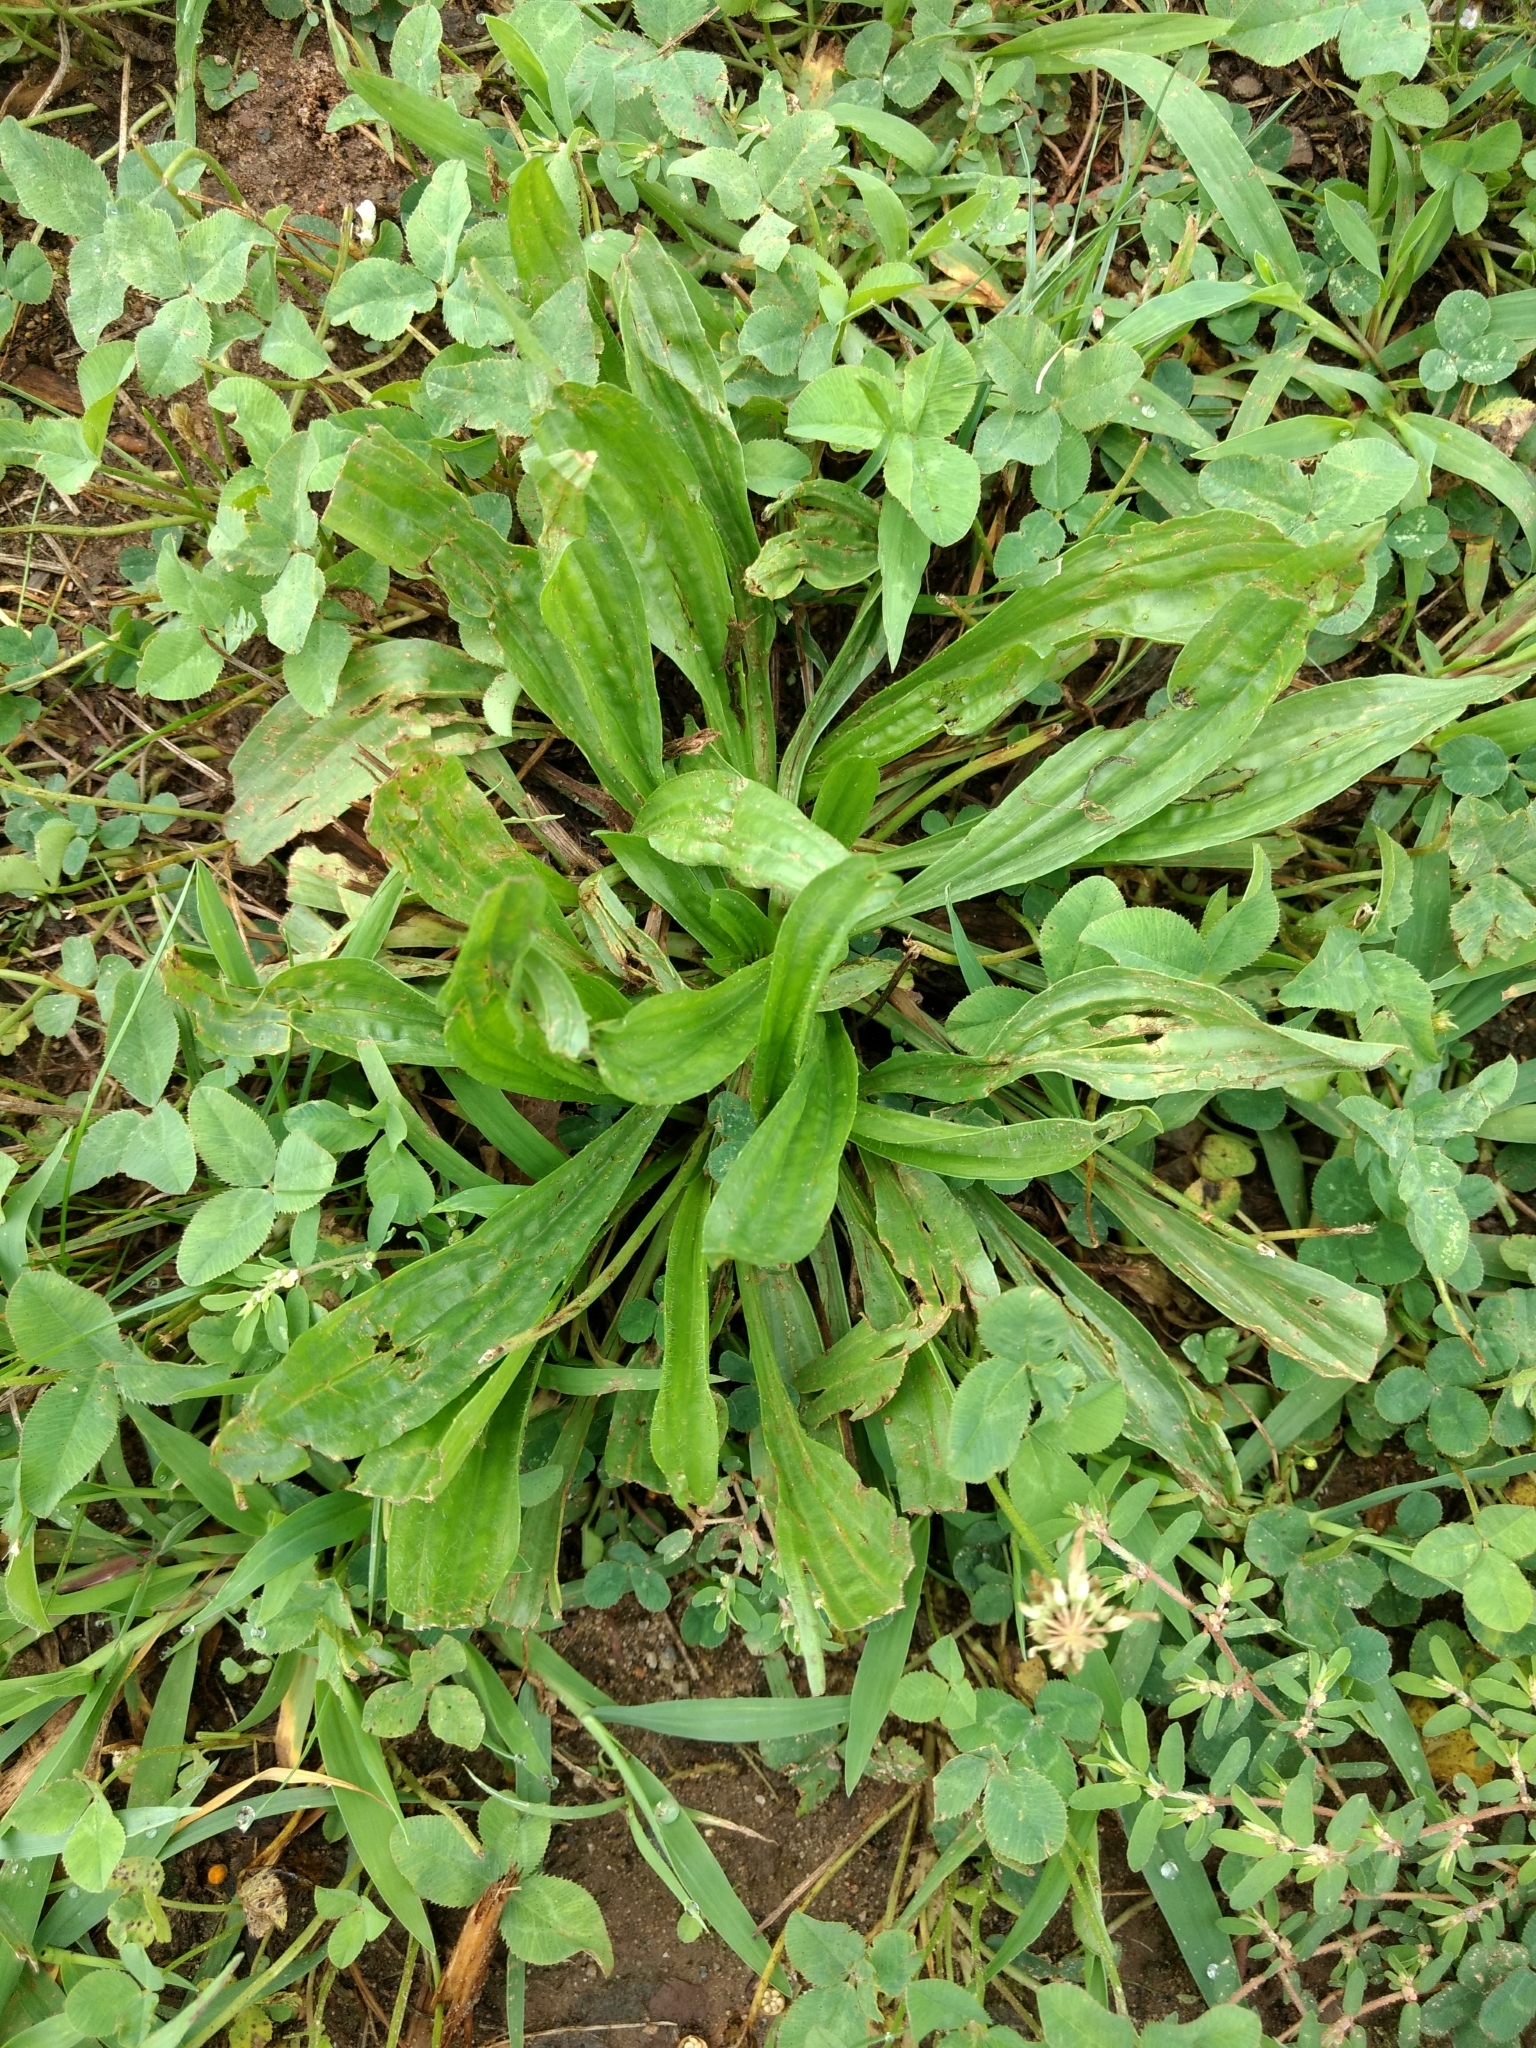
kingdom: Plantae
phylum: Tracheophyta
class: Magnoliopsida
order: Lamiales
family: Plantaginaceae
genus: Plantago
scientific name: Plantago lanceolata
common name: Ribwort plantain
